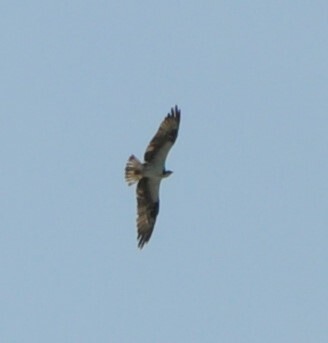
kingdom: Animalia
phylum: Chordata
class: Aves
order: Accipitriformes
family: Pandionidae
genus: Pandion
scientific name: Pandion haliaetus
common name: Osprey
